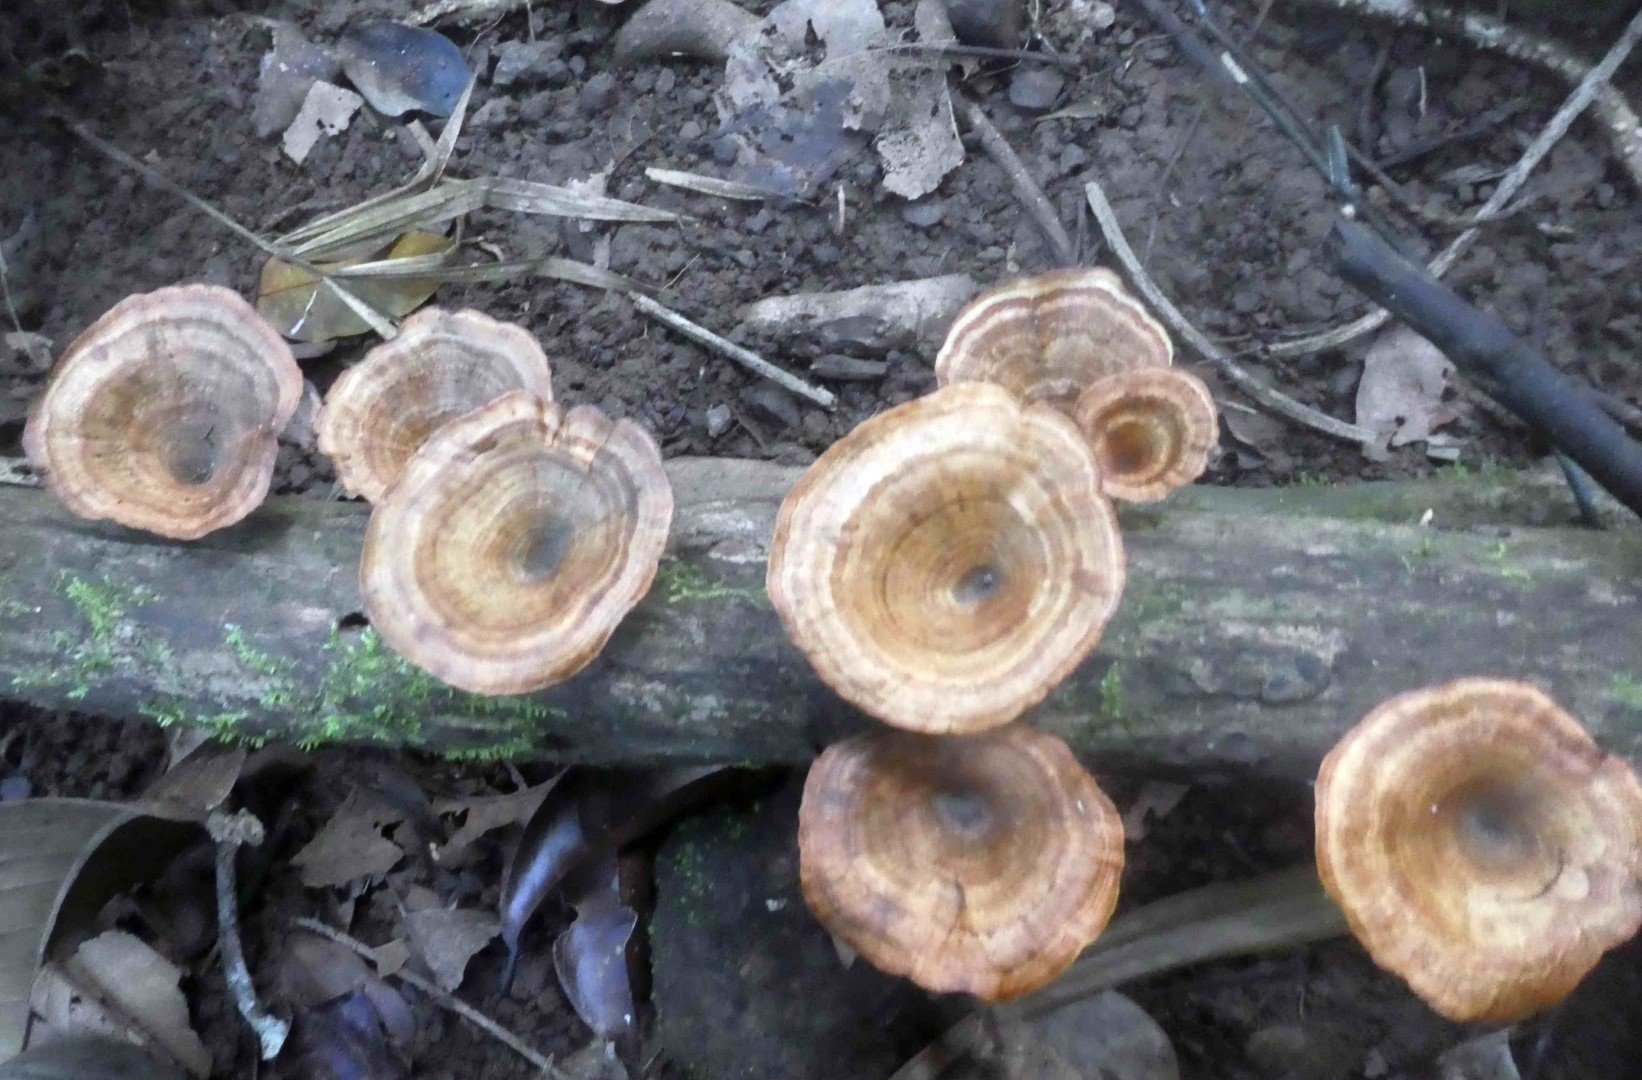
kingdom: Fungi
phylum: Basidiomycota
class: Agaricomycetes
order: Polyporales
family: Polyporaceae
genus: Microporus
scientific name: Microporus xanthopus
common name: Yellow-stemmed micropore
